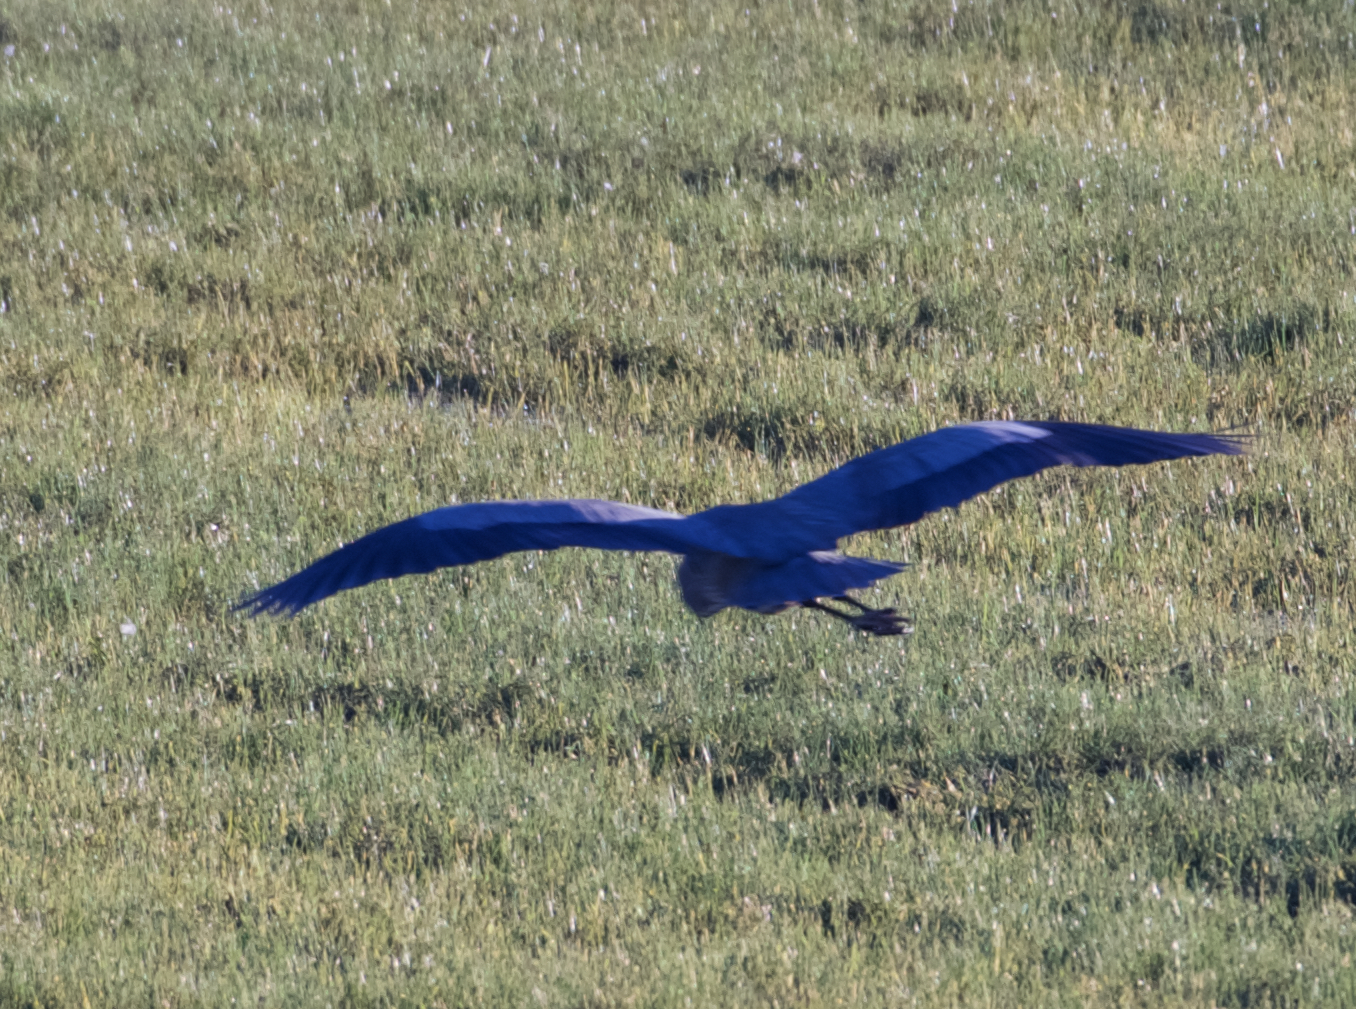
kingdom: Animalia
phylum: Chordata
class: Aves
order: Pelecaniformes
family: Ardeidae
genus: Ardea
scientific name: Ardea herodias
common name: Great blue heron
